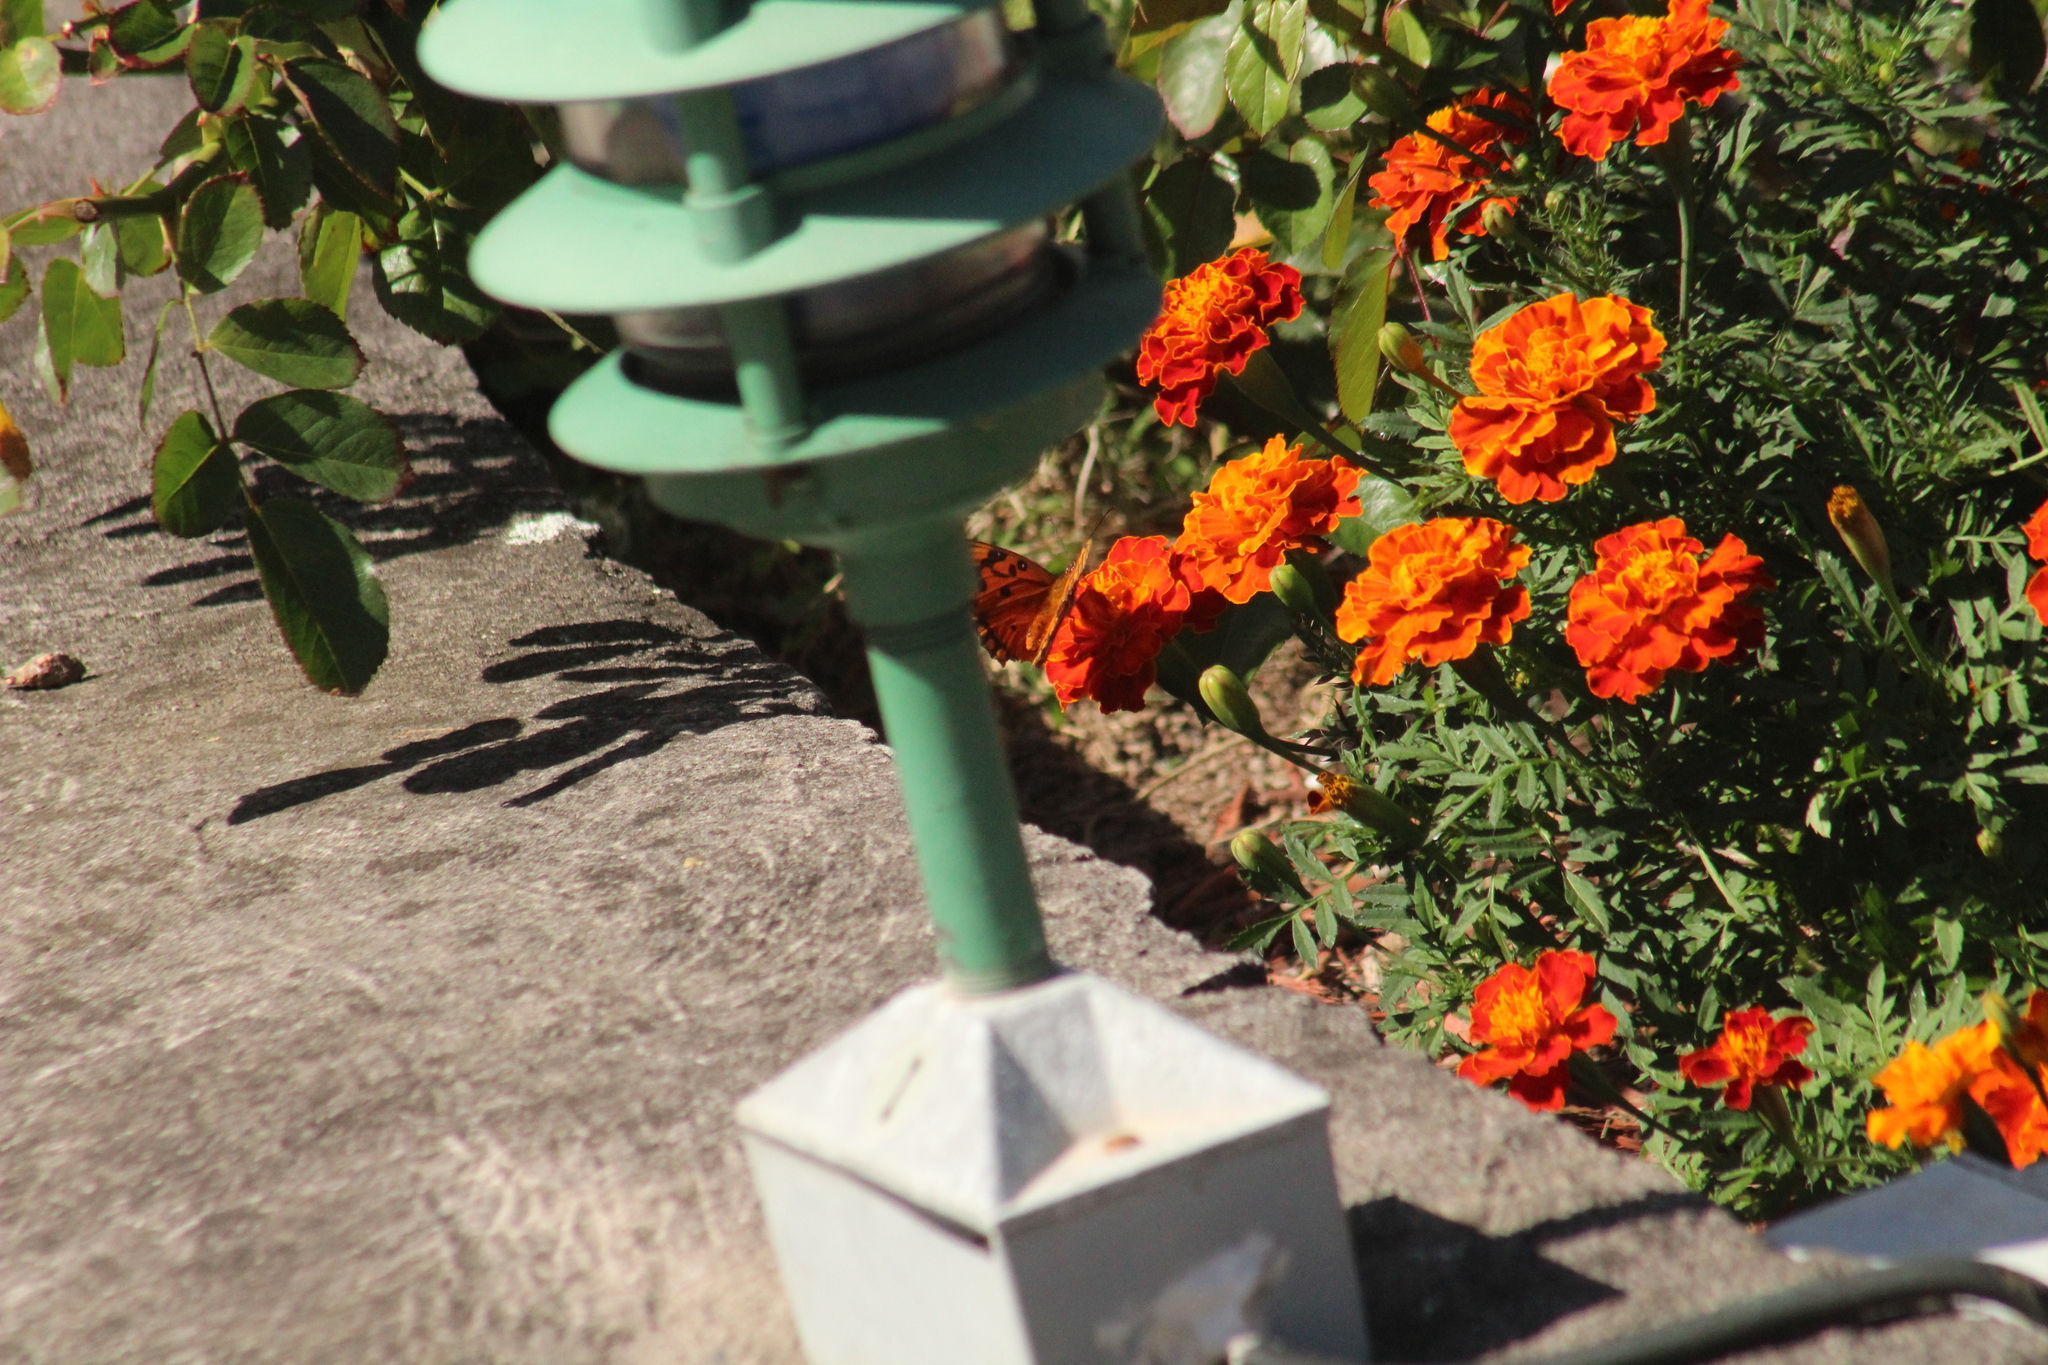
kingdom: Animalia
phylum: Arthropoda
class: Insecta
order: Lepidoptera
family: Nymphalidae
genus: Dione
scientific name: Dione vanillae
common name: Gulf fritillary
